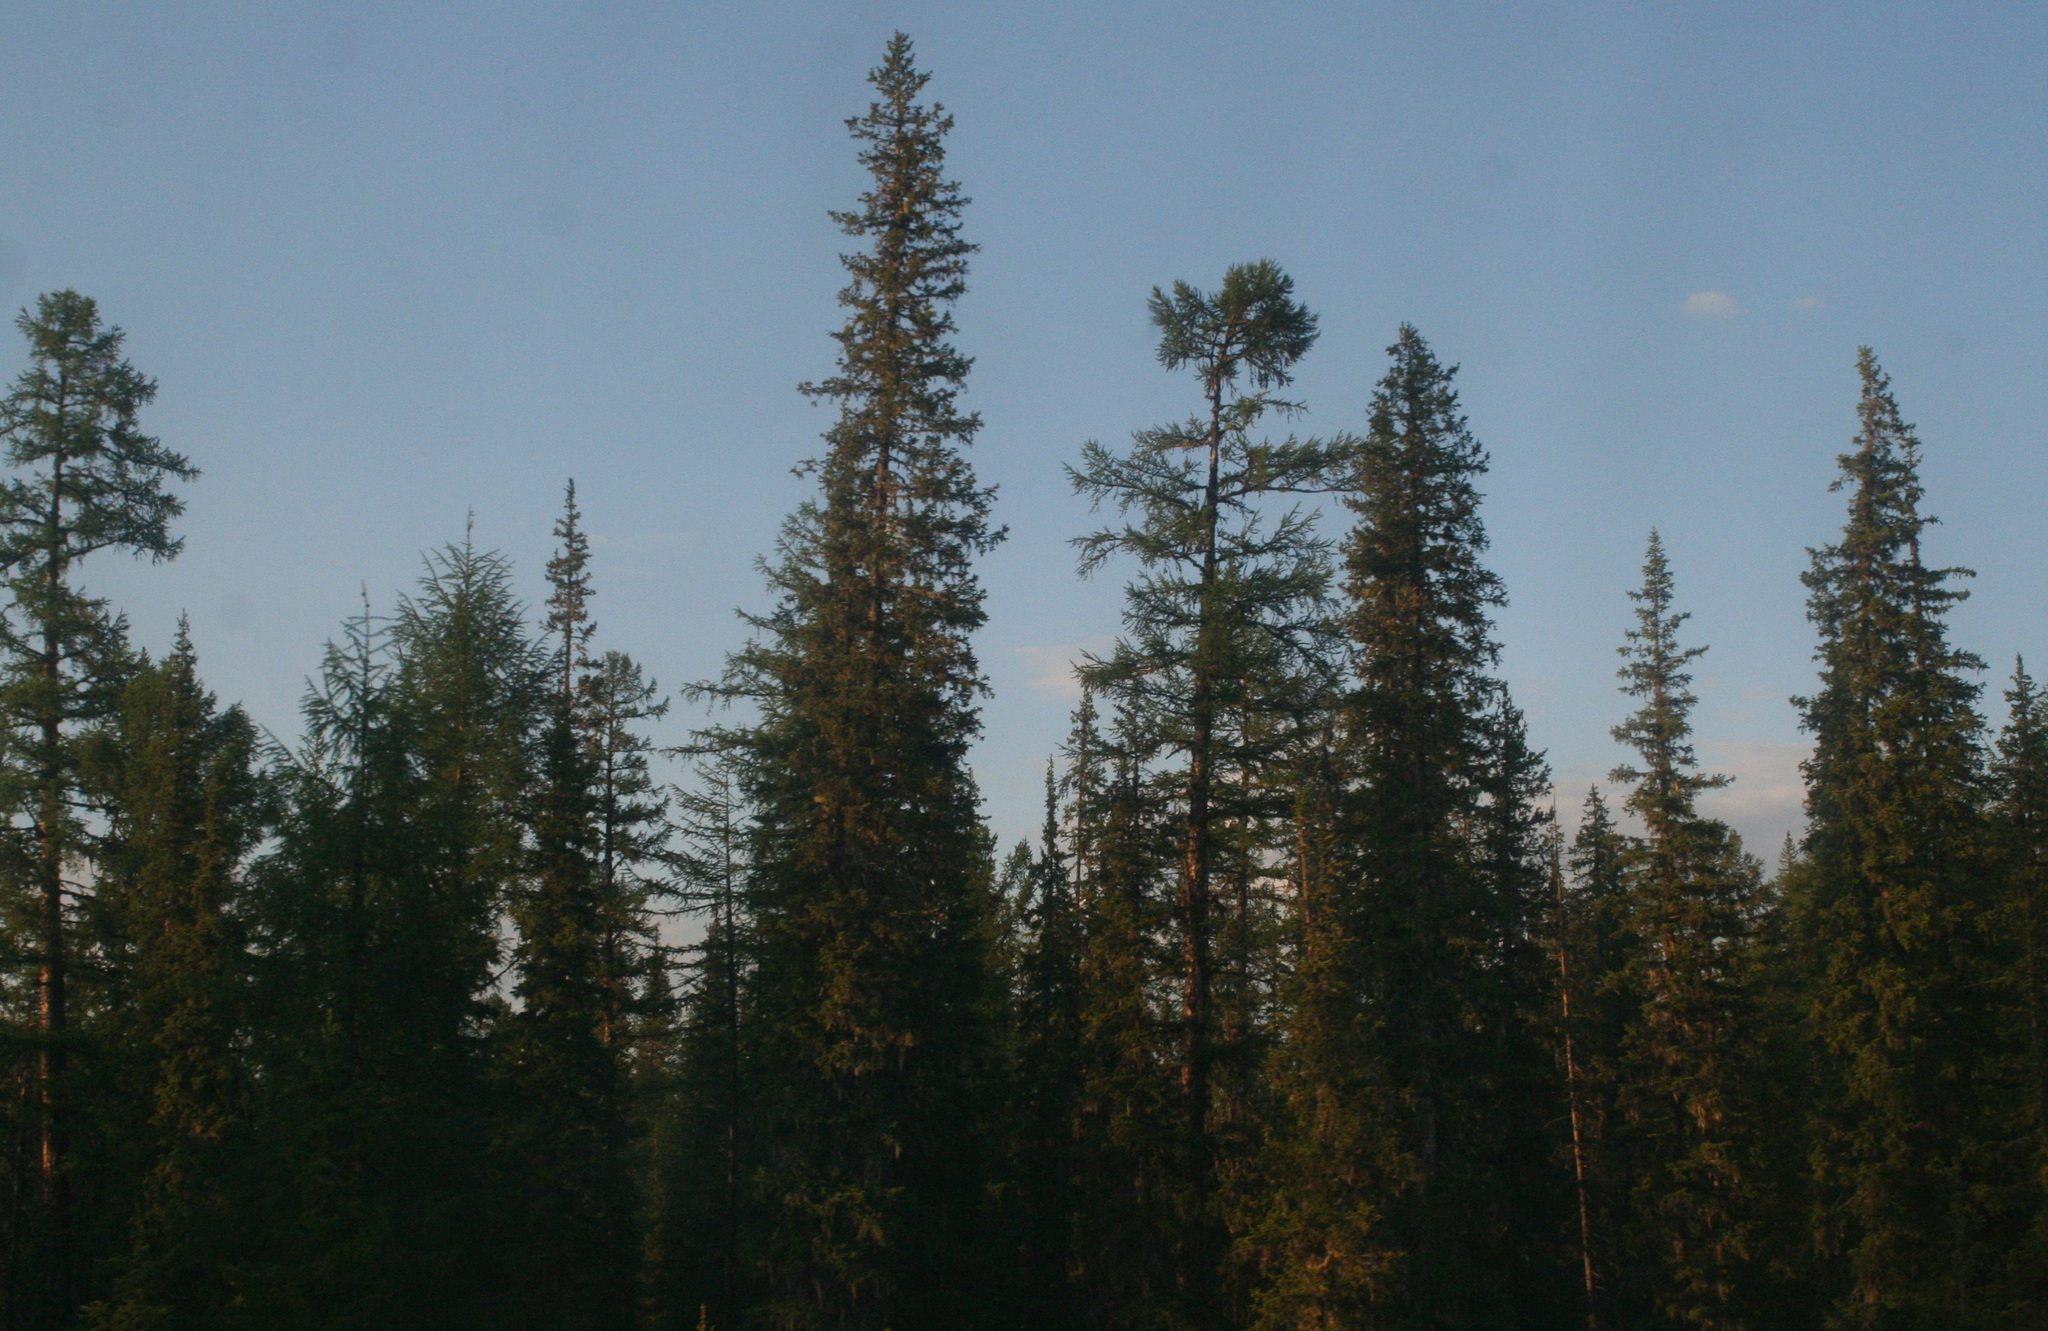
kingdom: Plantae
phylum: Tracheophyta
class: Pinopsida
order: Pinales
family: Pinaceae
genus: Picea
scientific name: Picea obovata
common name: Siberian spruce
